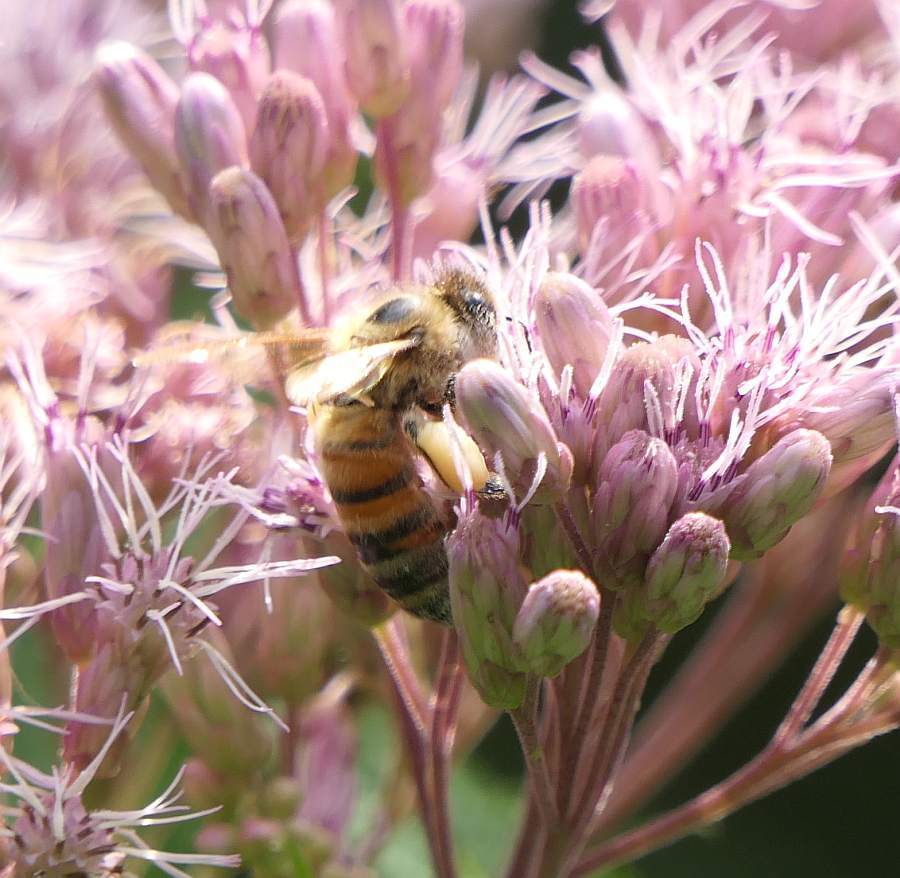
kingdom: Animalia
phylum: Arthropoda
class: Insecta
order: Hymenoptera
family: Apidae
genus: Apis
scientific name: Apis mellifera
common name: Honey bee
